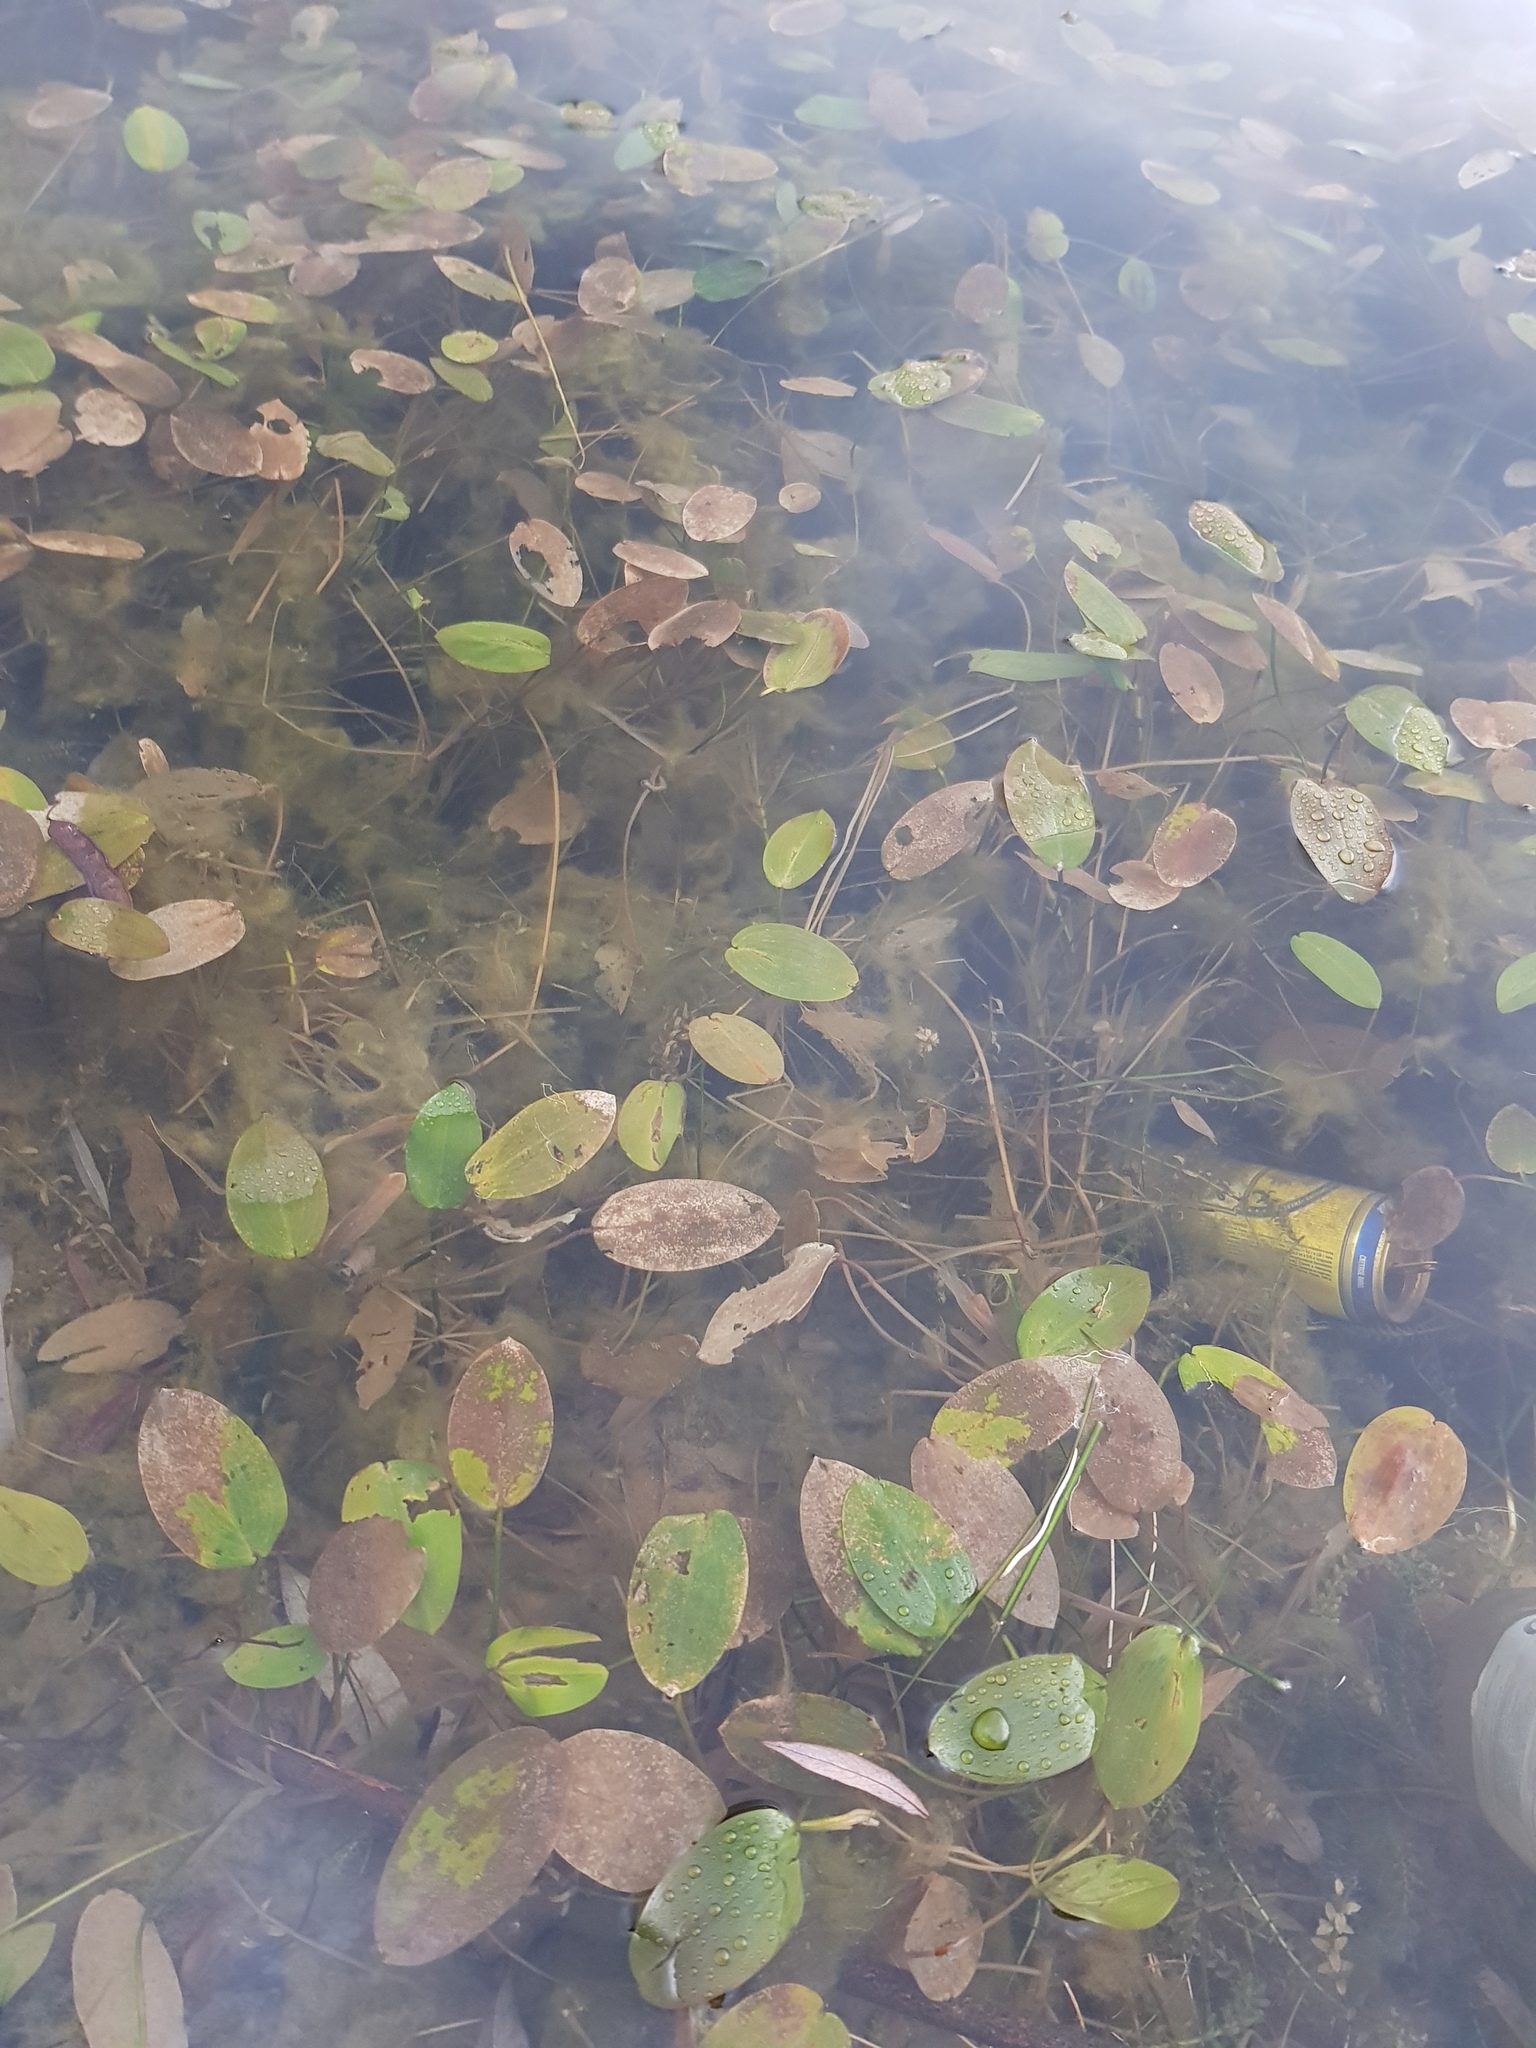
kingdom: Plantae
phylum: Tracheophyta
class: Liliopsida
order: Alismatales
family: Potamogetonaceae
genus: Potamogeton
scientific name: Potamogeton natans
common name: Broad-leaved pondweed
